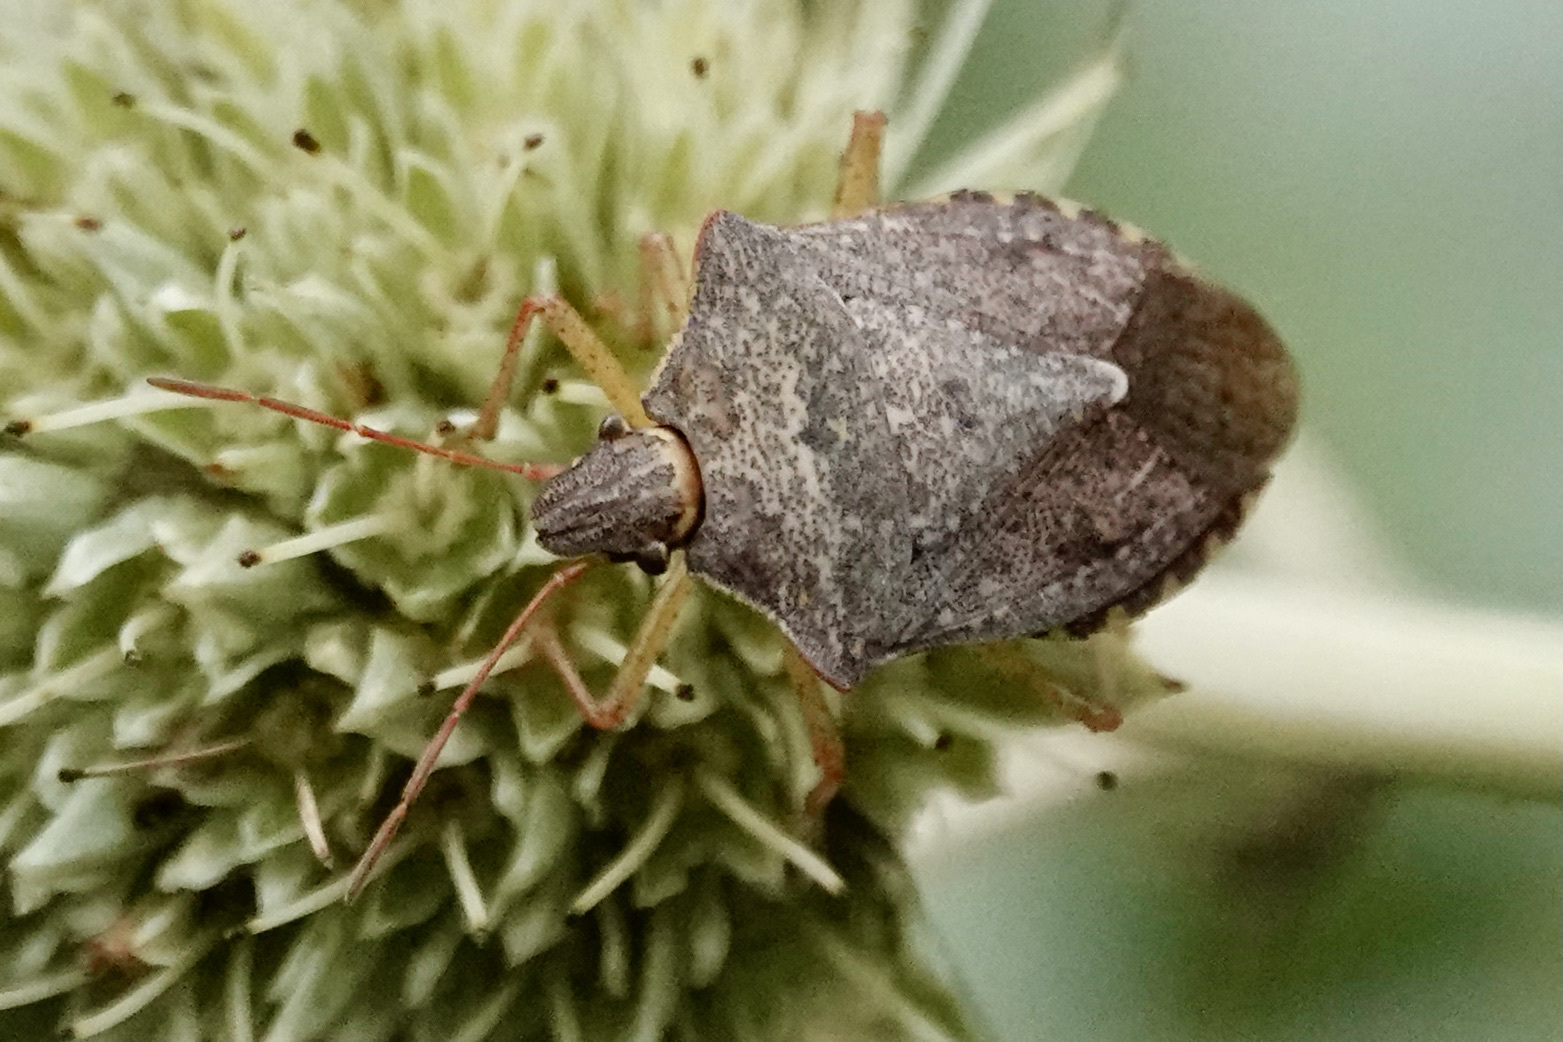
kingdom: Animalia
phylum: Arthropoda
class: Insecta
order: Hemiptera
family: Pentatomidae
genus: Euschistus
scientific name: Euschistus servus
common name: Brown stink bug
